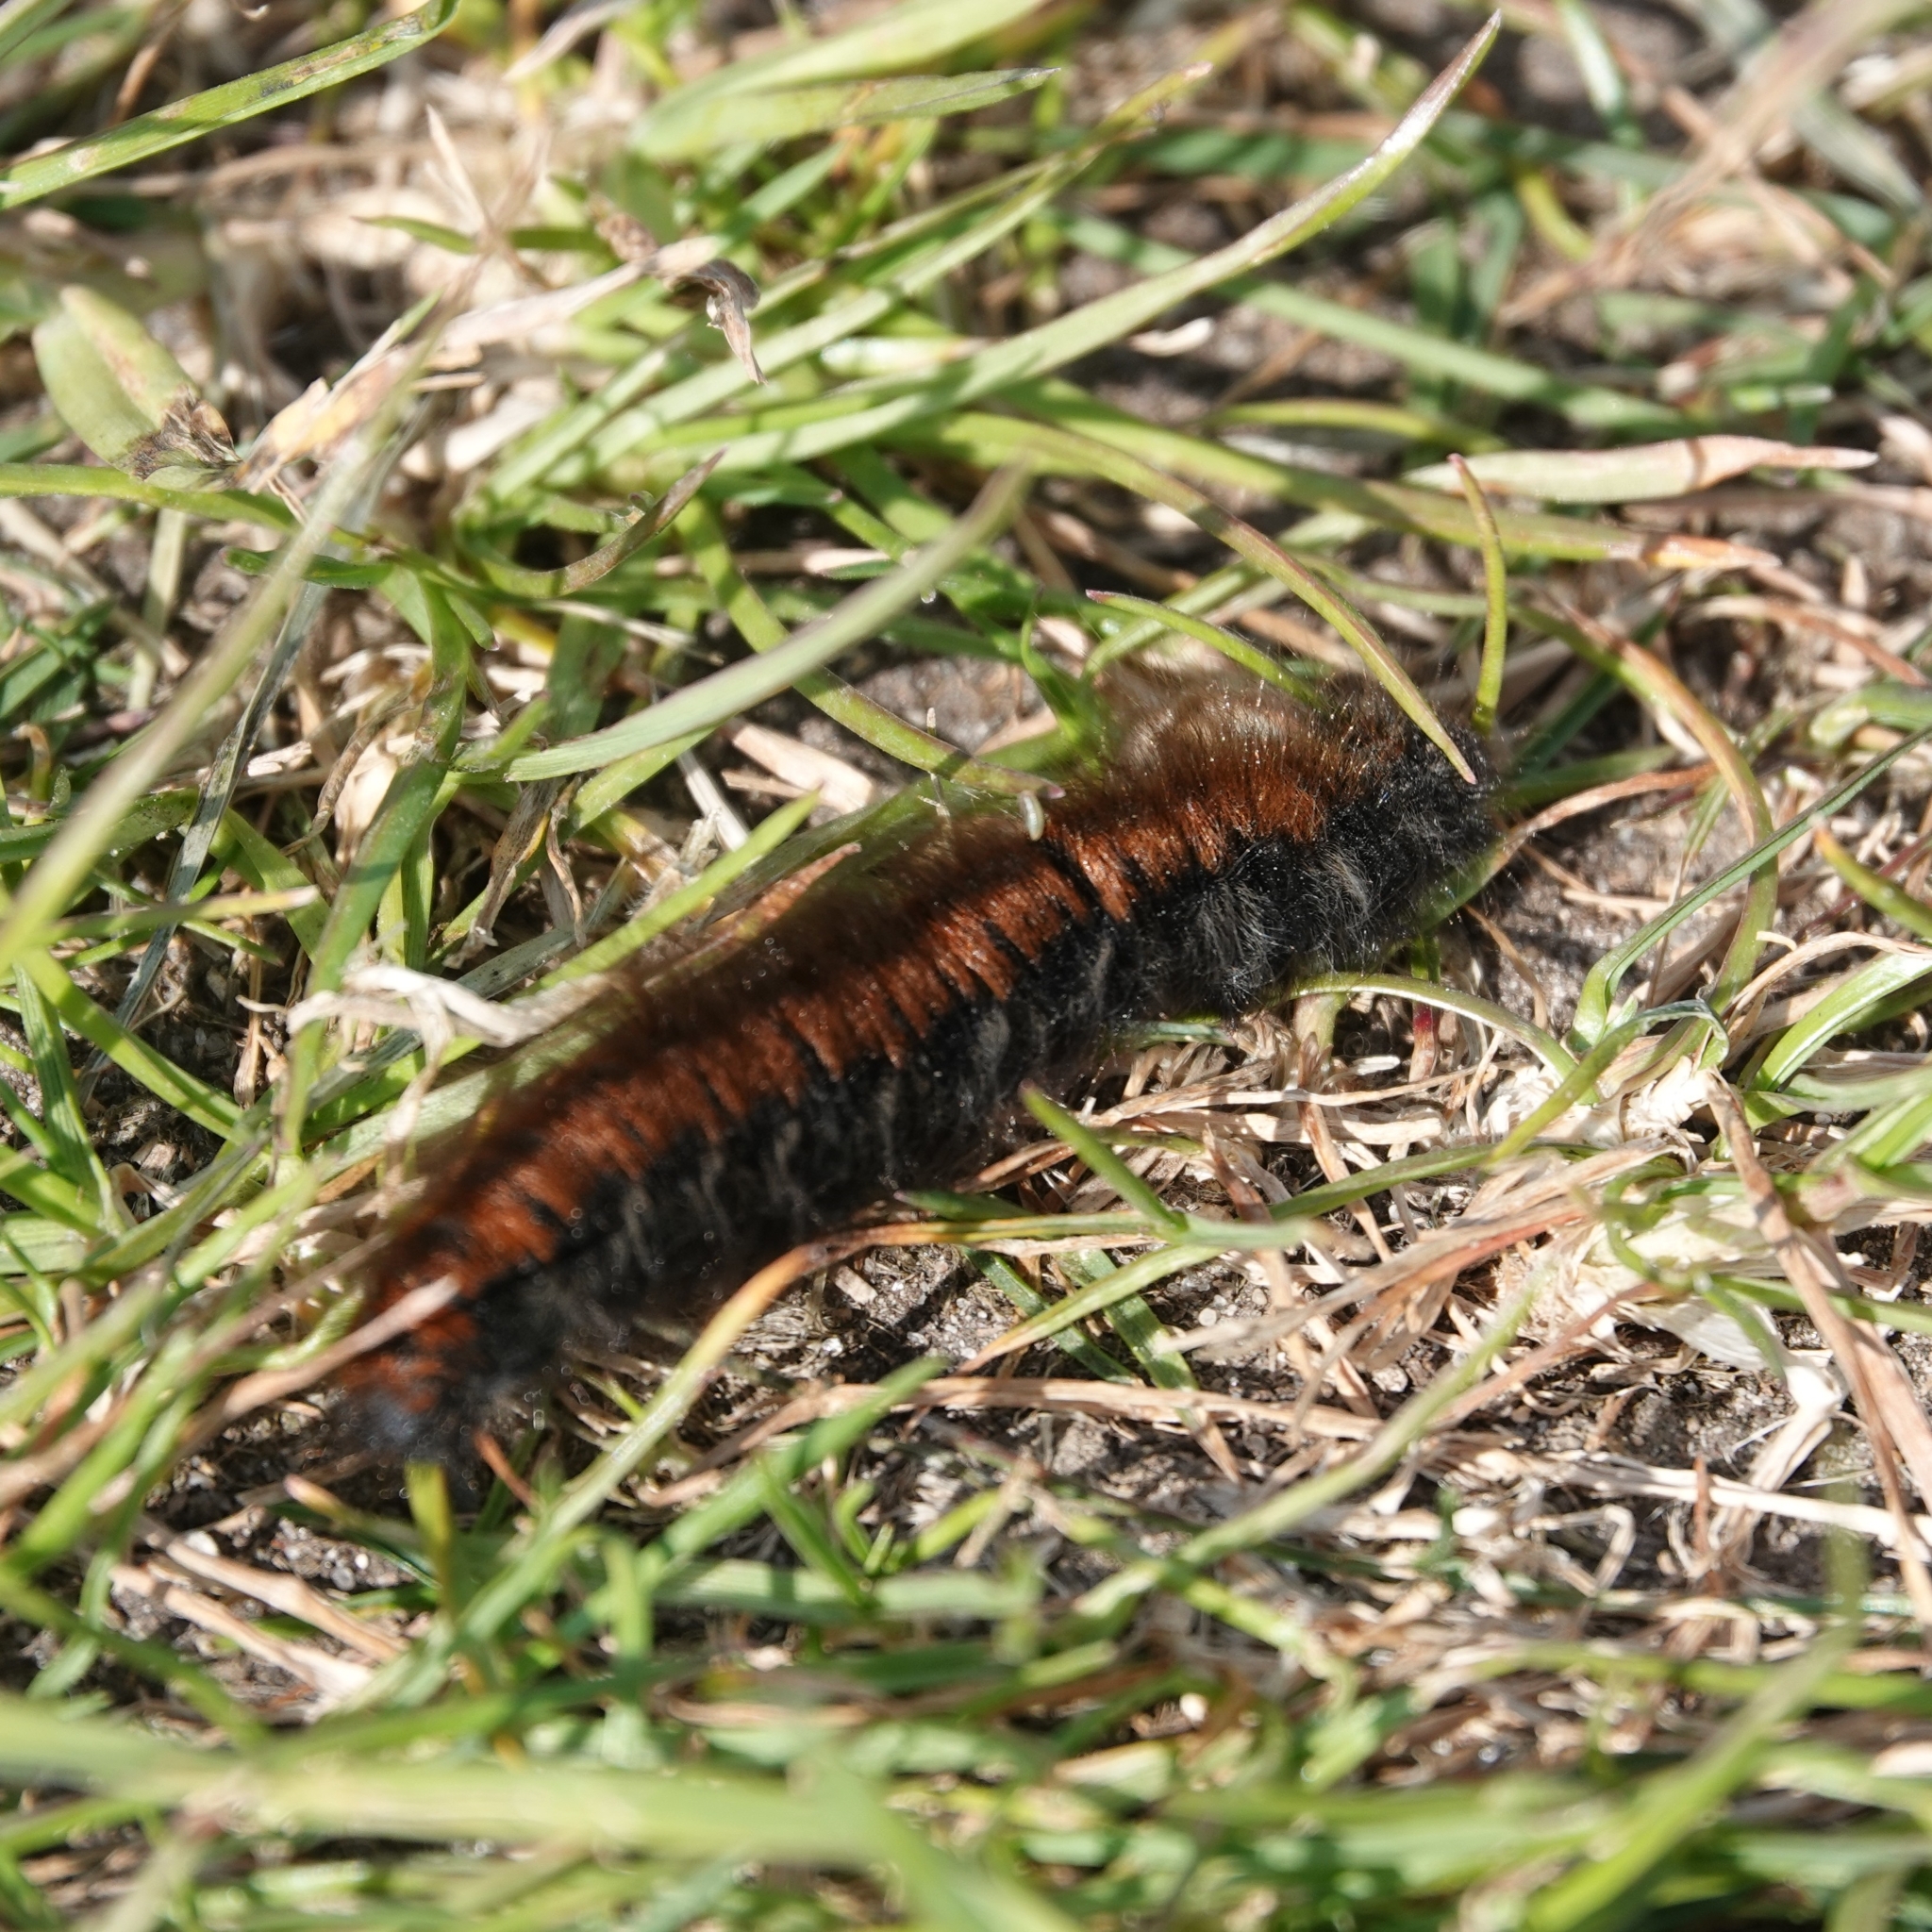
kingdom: Animalia
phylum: Arthropoda
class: Insecta
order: Lepidoptera
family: Lasiocampidae
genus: Macrothylacia
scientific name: Macrothylacia rubi
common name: Fox moth
